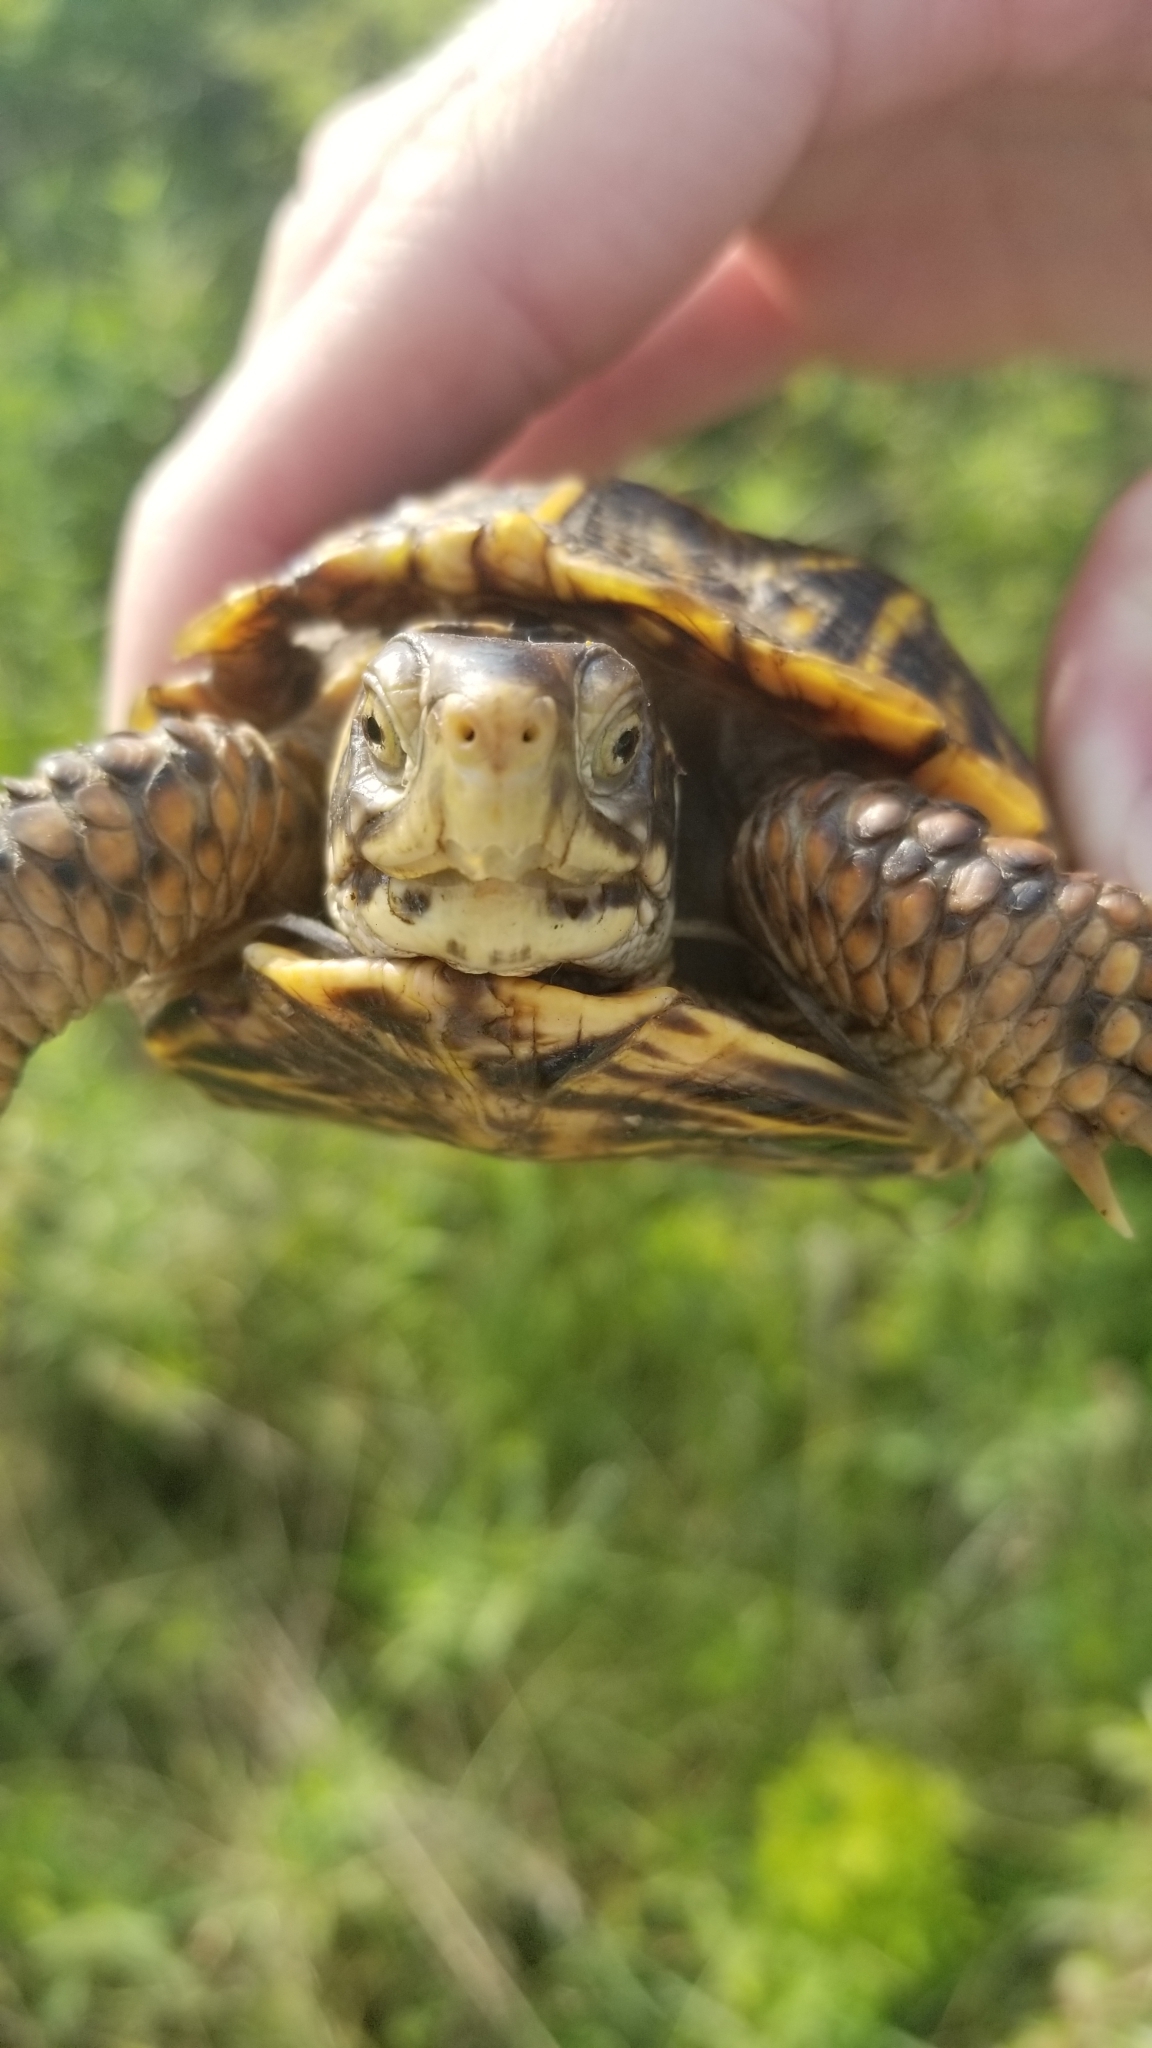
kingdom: Animalia
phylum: Chordata
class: Testudines
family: Emydidae
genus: Terrapene
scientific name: Terrapene ornata
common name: Western box turtle
